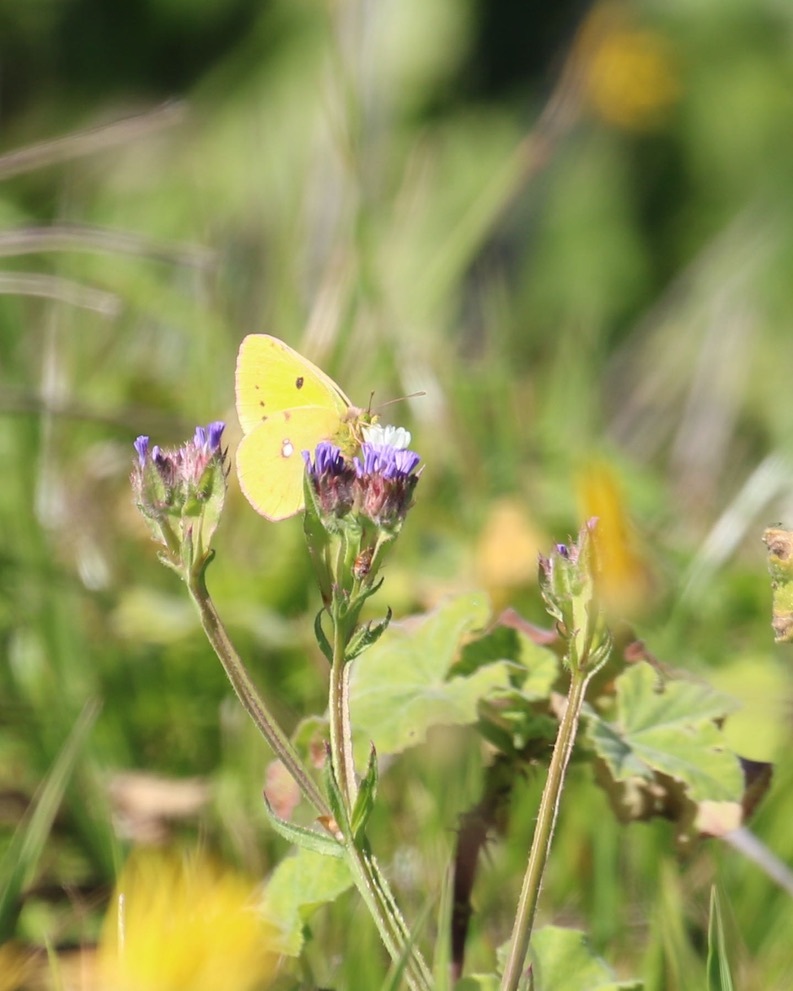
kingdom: Animalia
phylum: Arthropoda
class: Insecta
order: Lepidoptera
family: Pieridae
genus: Colias
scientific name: Colias croceus
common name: Clouded yellow
